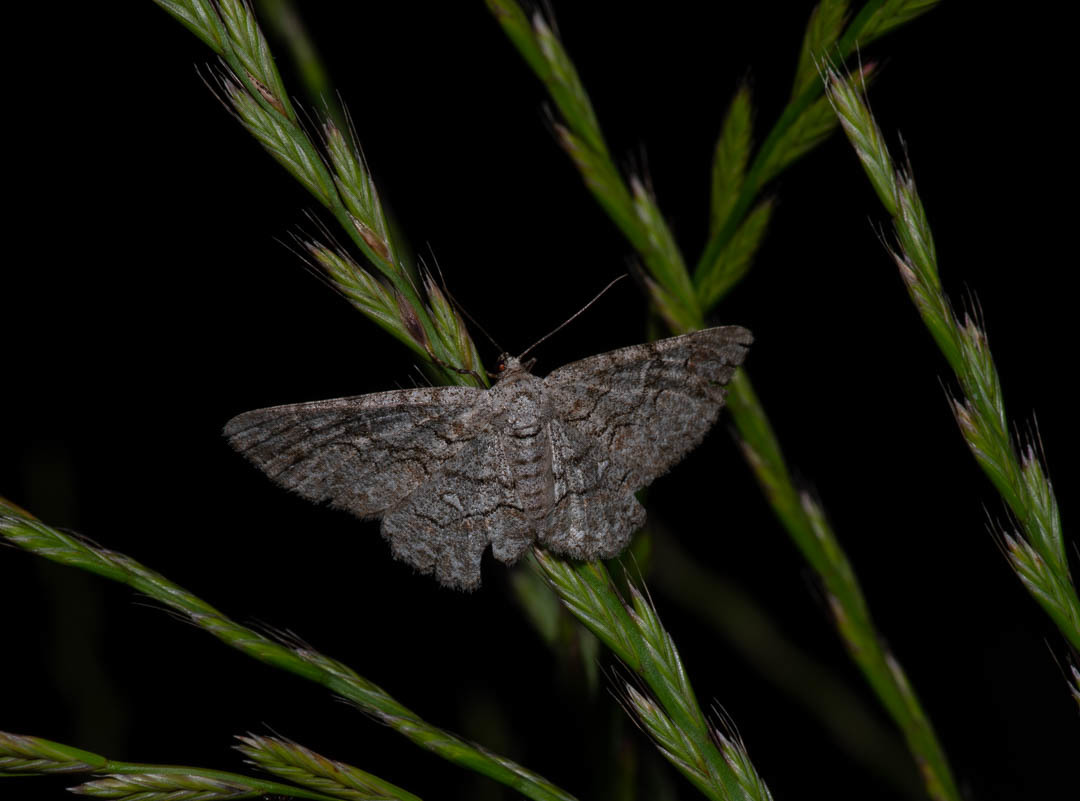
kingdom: Animalia
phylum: Arthropoda
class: Insecta
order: Lepidoptera
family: Geometridae
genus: Iridopsis
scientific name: Iridopsis defectaria
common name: Brown-shaded gray
